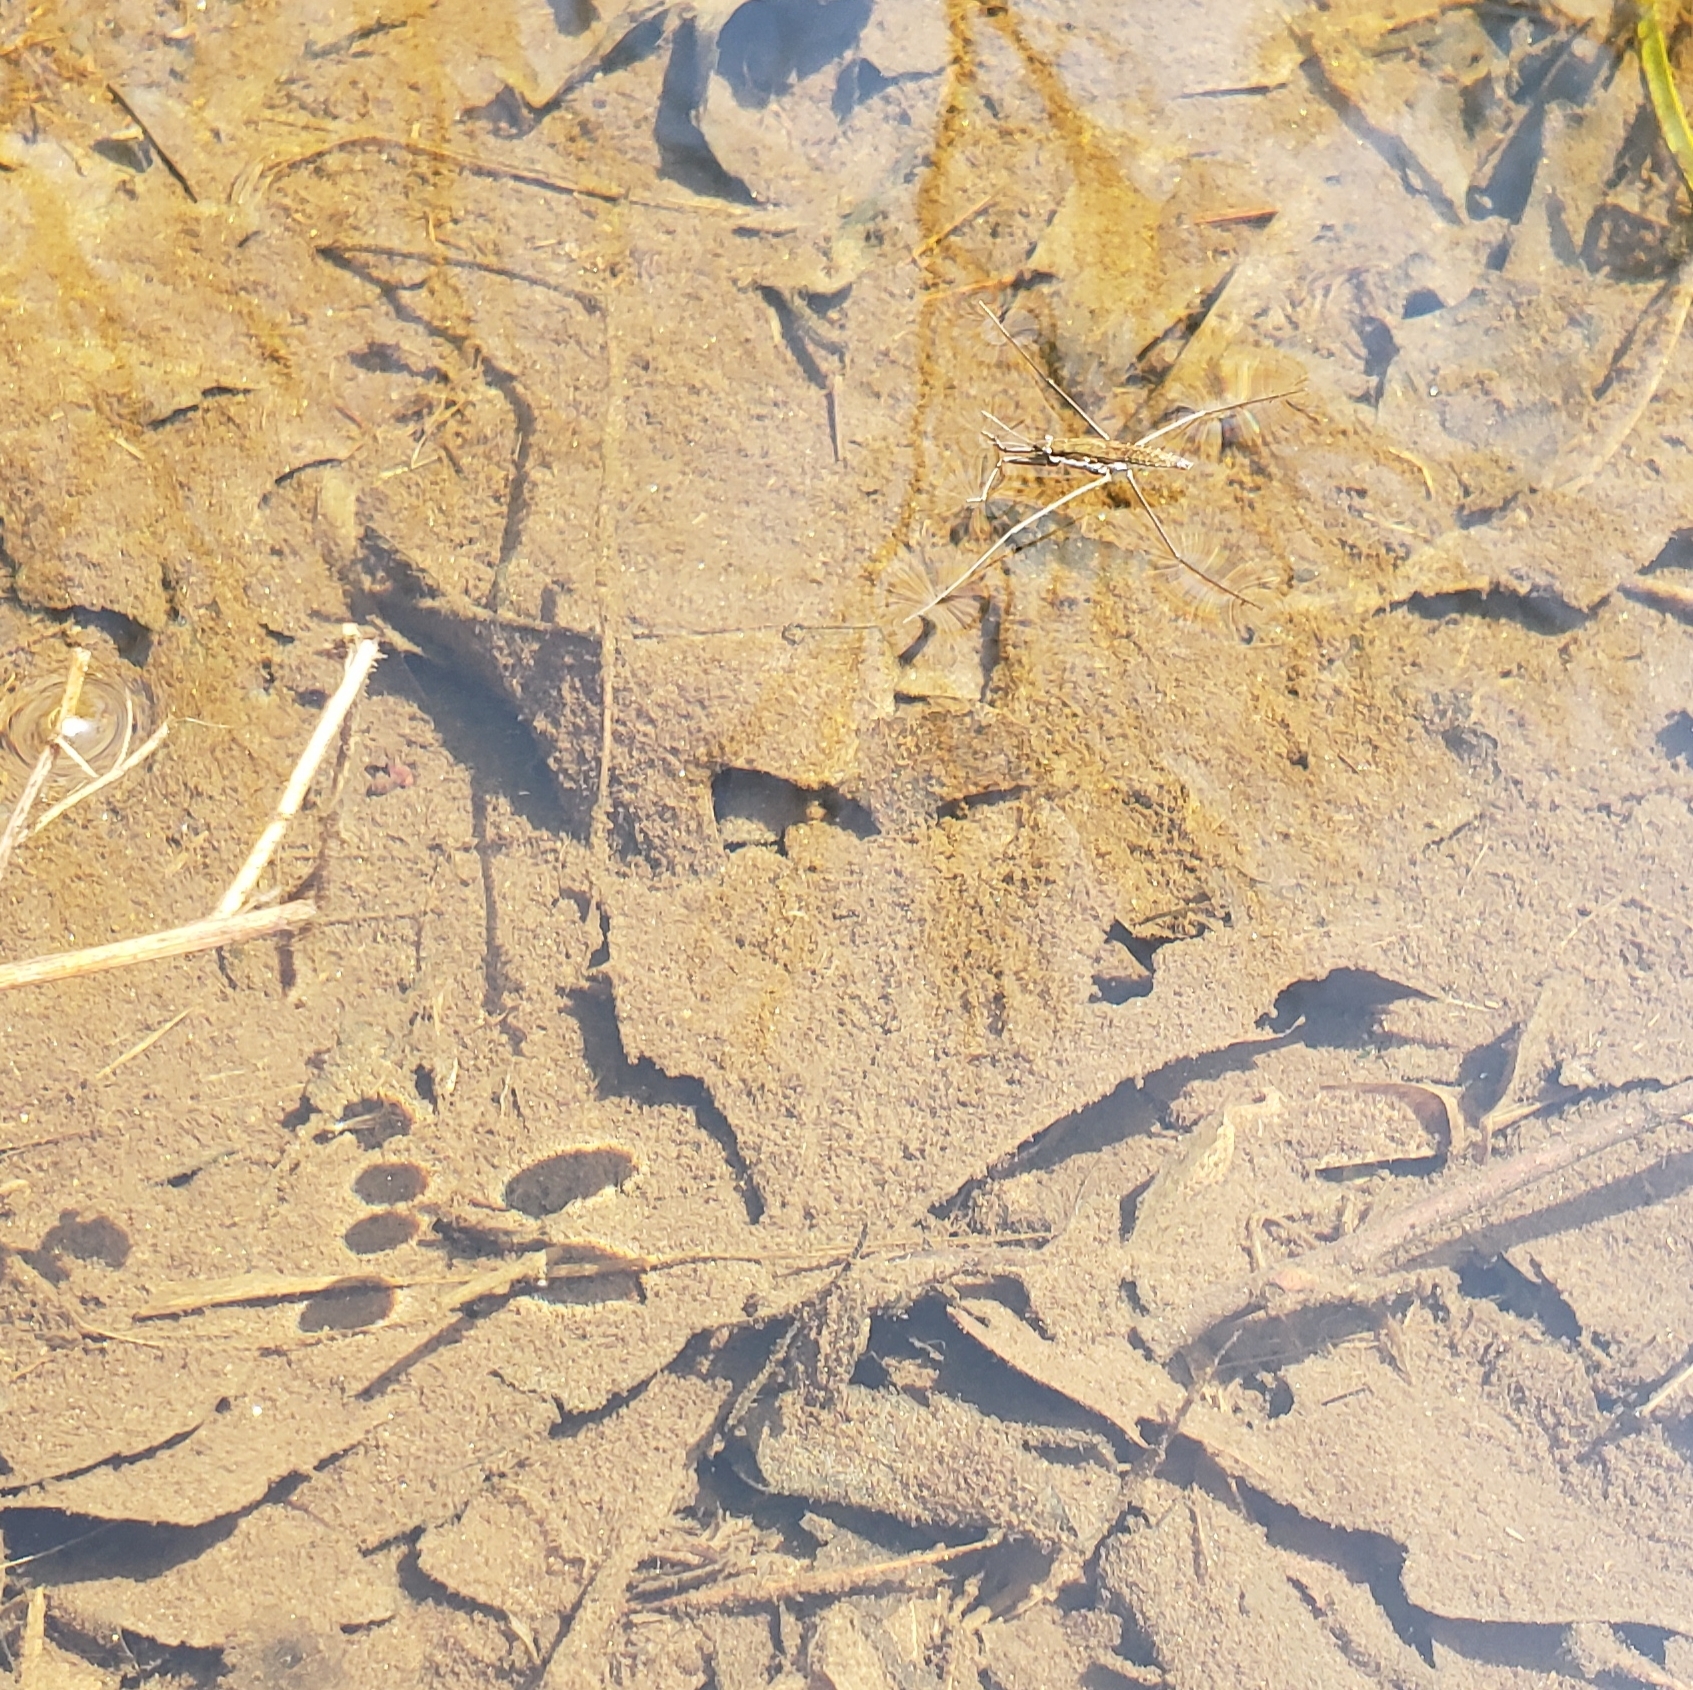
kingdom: Animalia
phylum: Arthropoda
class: Insecta
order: Hemiptera
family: Gerridae
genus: Aquarius
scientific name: Aquarius remigis
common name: Common water strider
